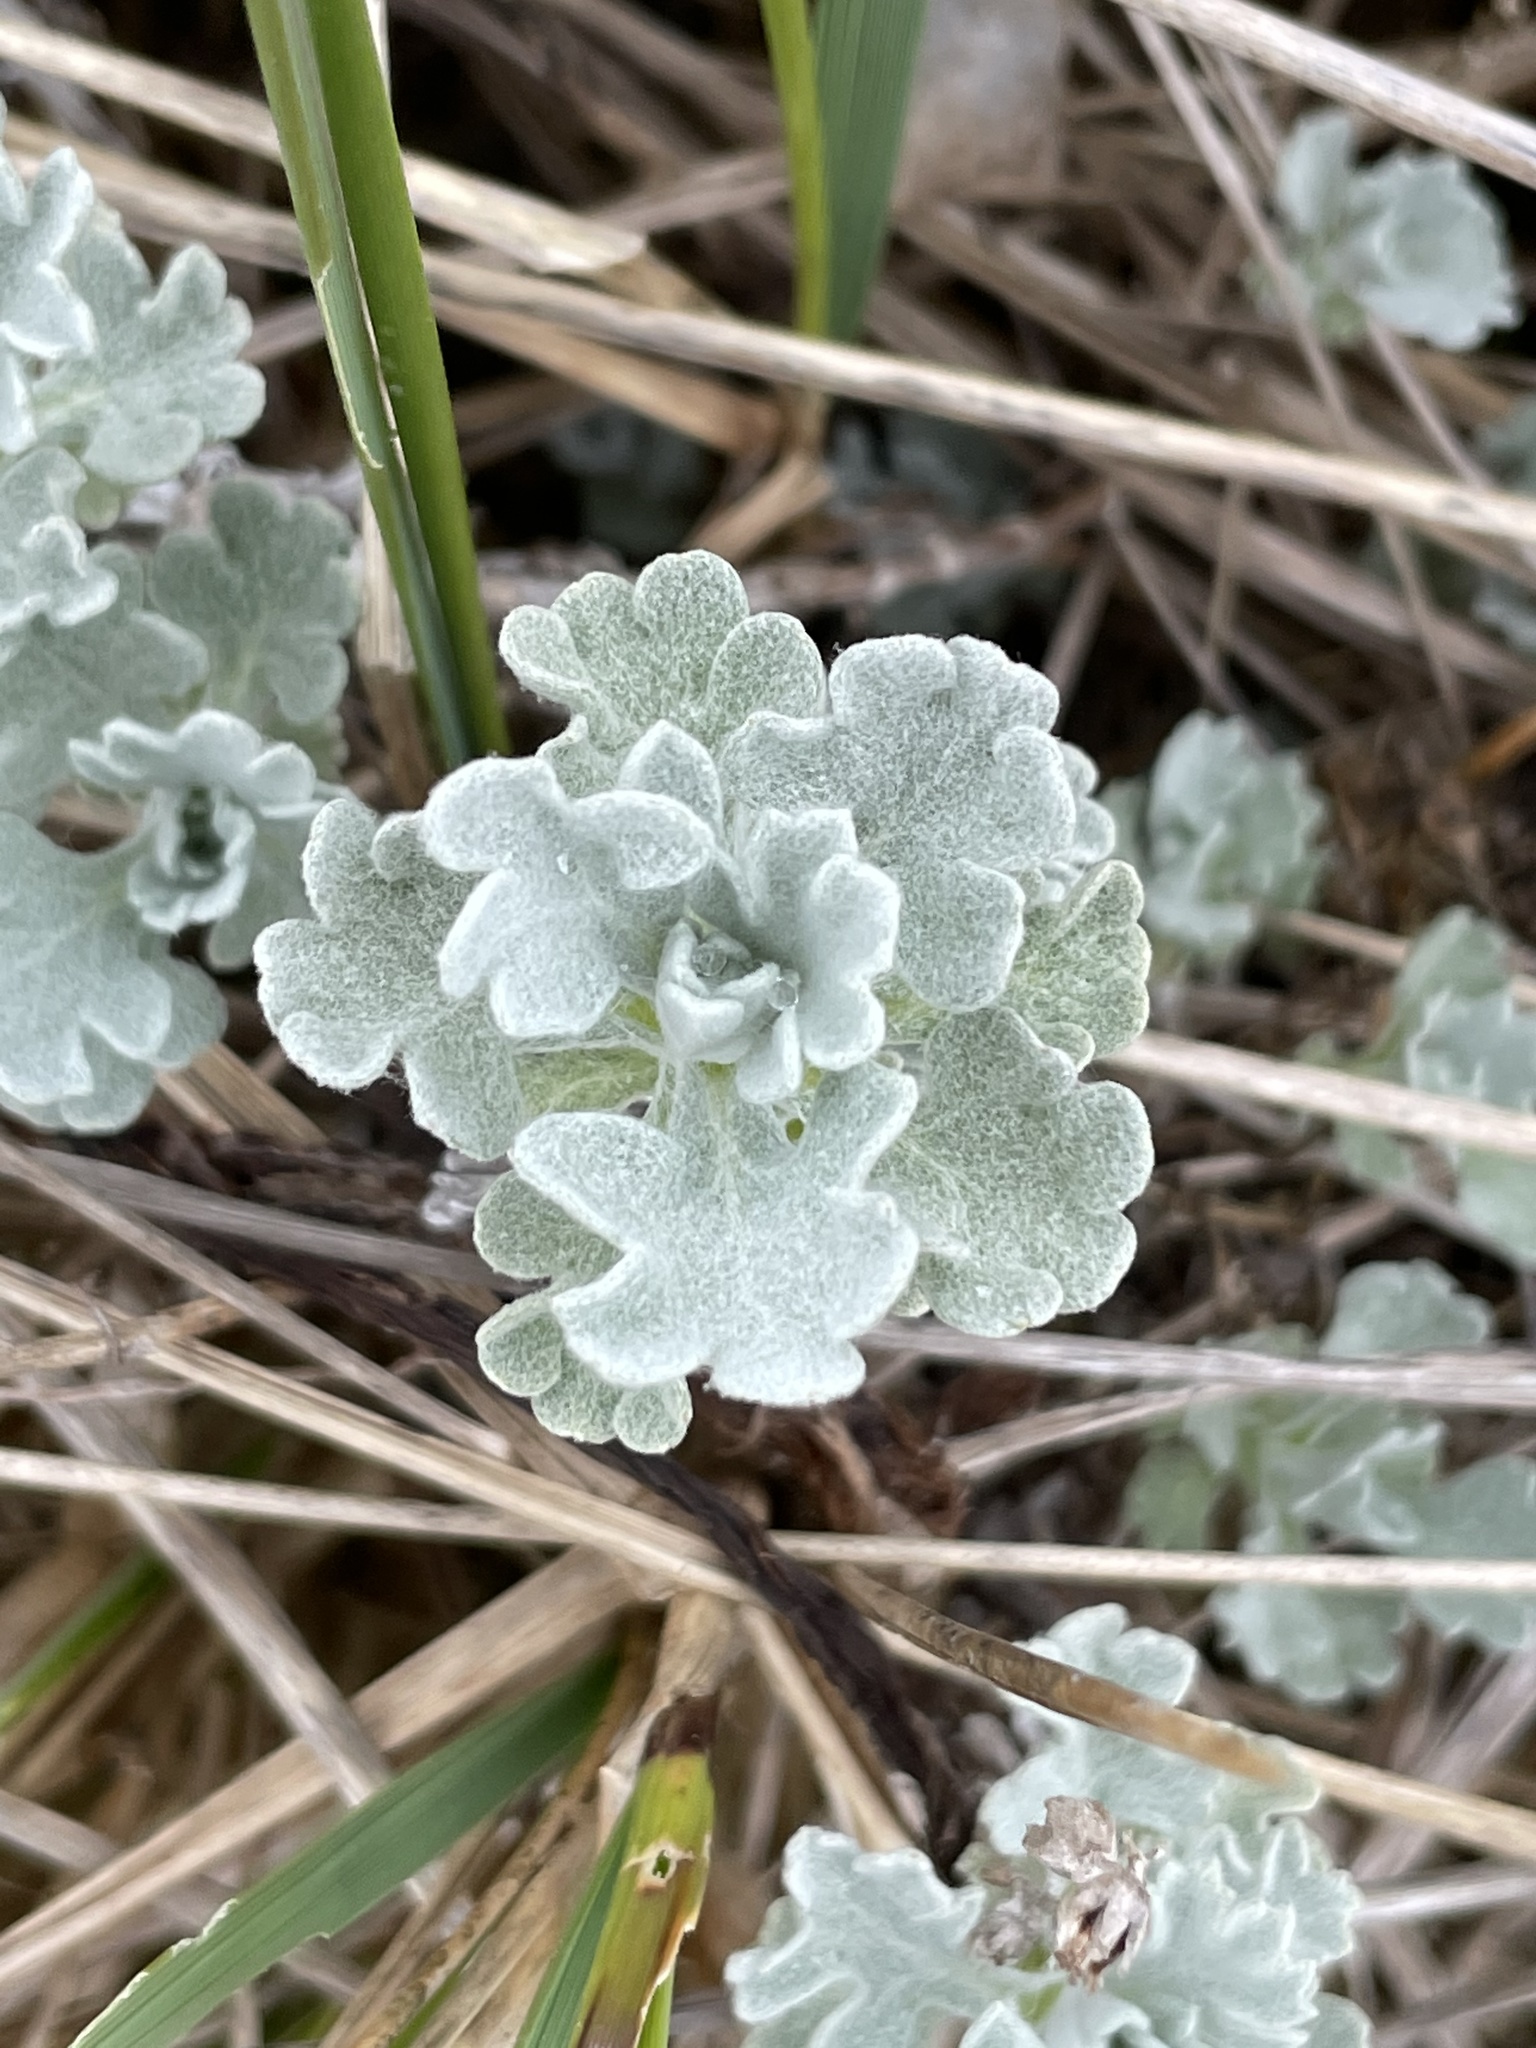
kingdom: Plantae
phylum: Tracheophyta
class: Magnoliopsida
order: Asterales
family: Asteraceae
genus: Artemisia
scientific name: Artemisia stelleriana
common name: Beach wormwood
